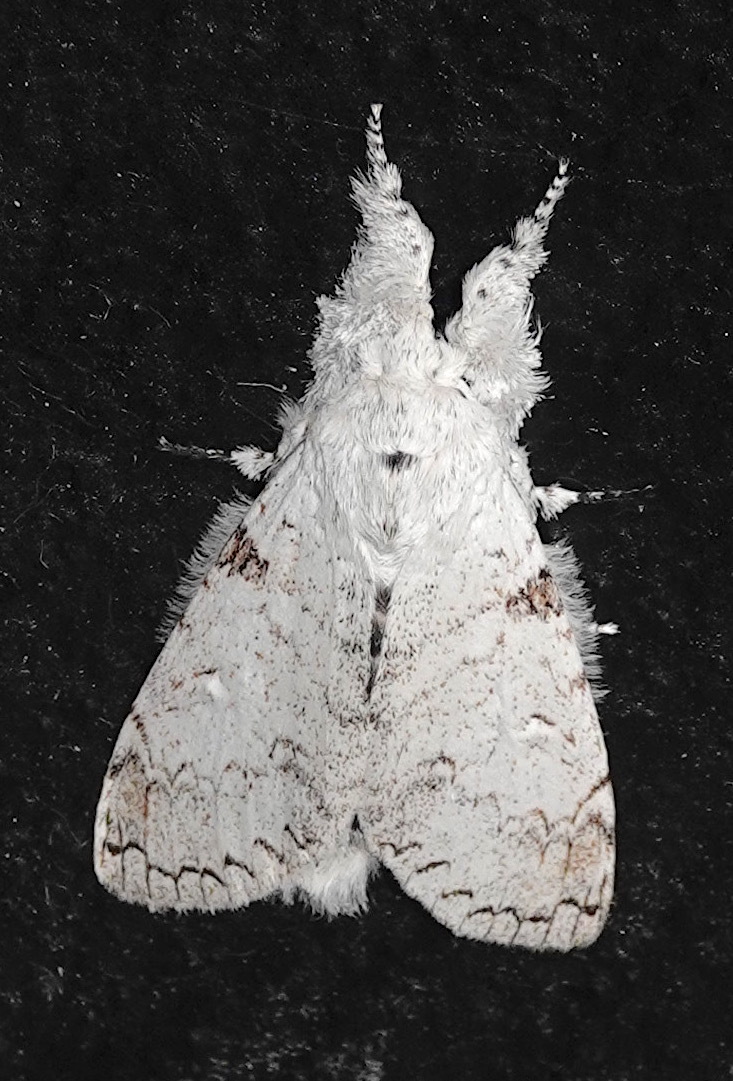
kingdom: Animalia
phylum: Arthropoda
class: Insecta
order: Lepidoptera
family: Erebidae
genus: Calliteara
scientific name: Calliteara diplozona
